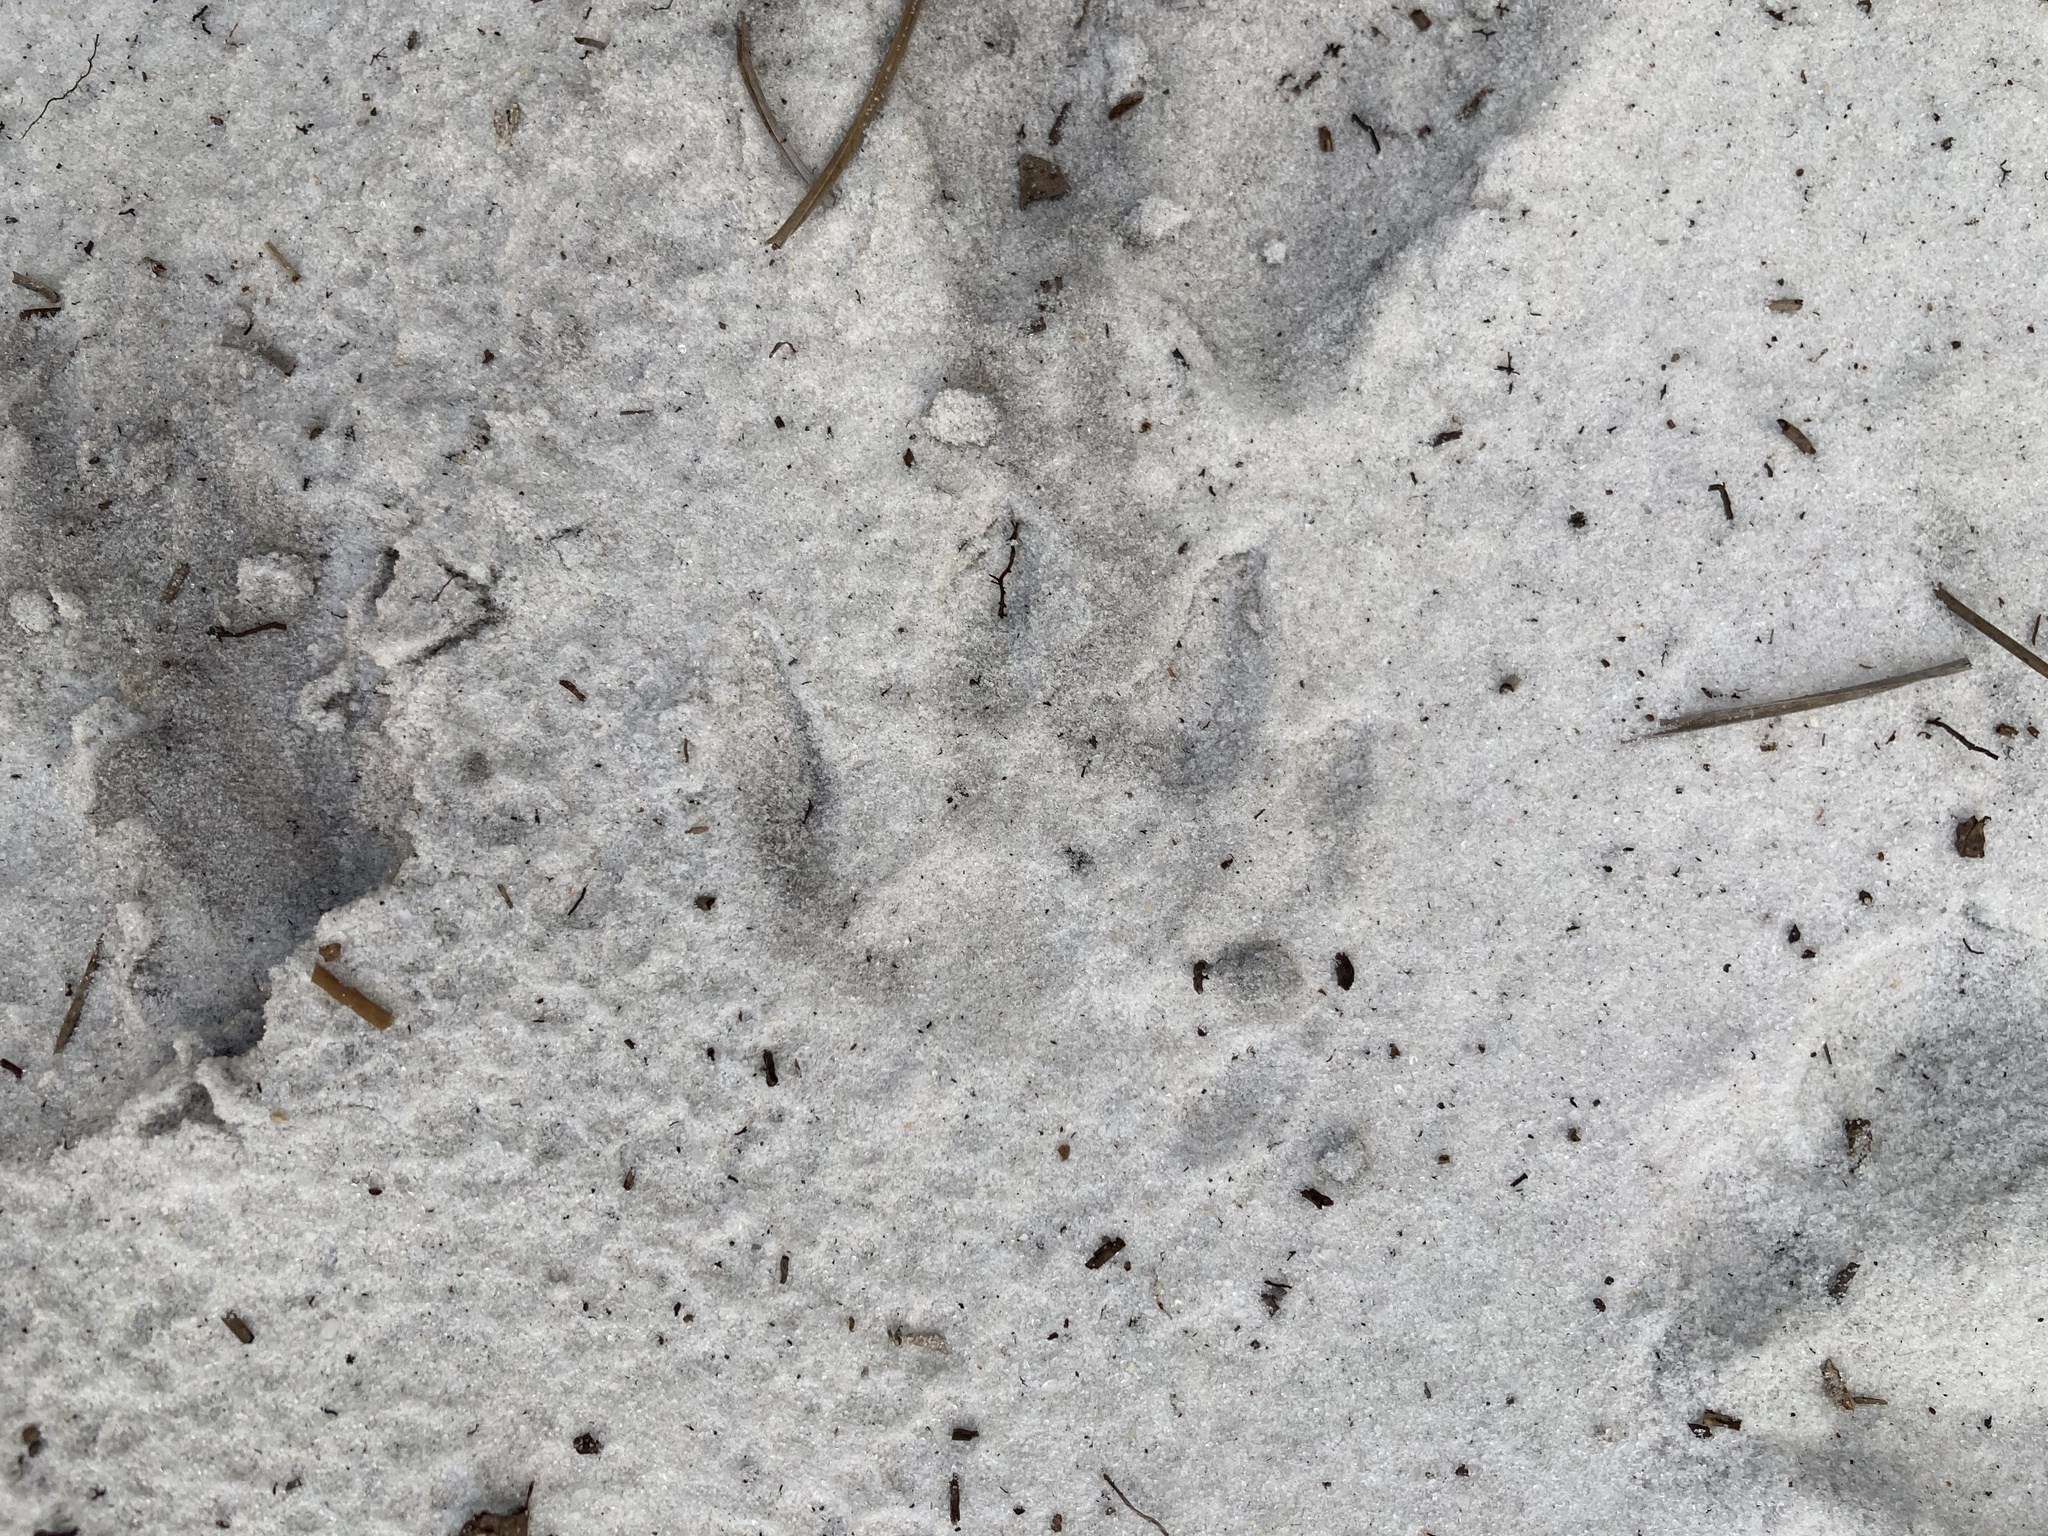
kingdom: Animalia
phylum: Chordata
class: Mammalia
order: Carnivora
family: Procyonidae
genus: Procyon
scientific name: Procyon lotor
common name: Raccoon
